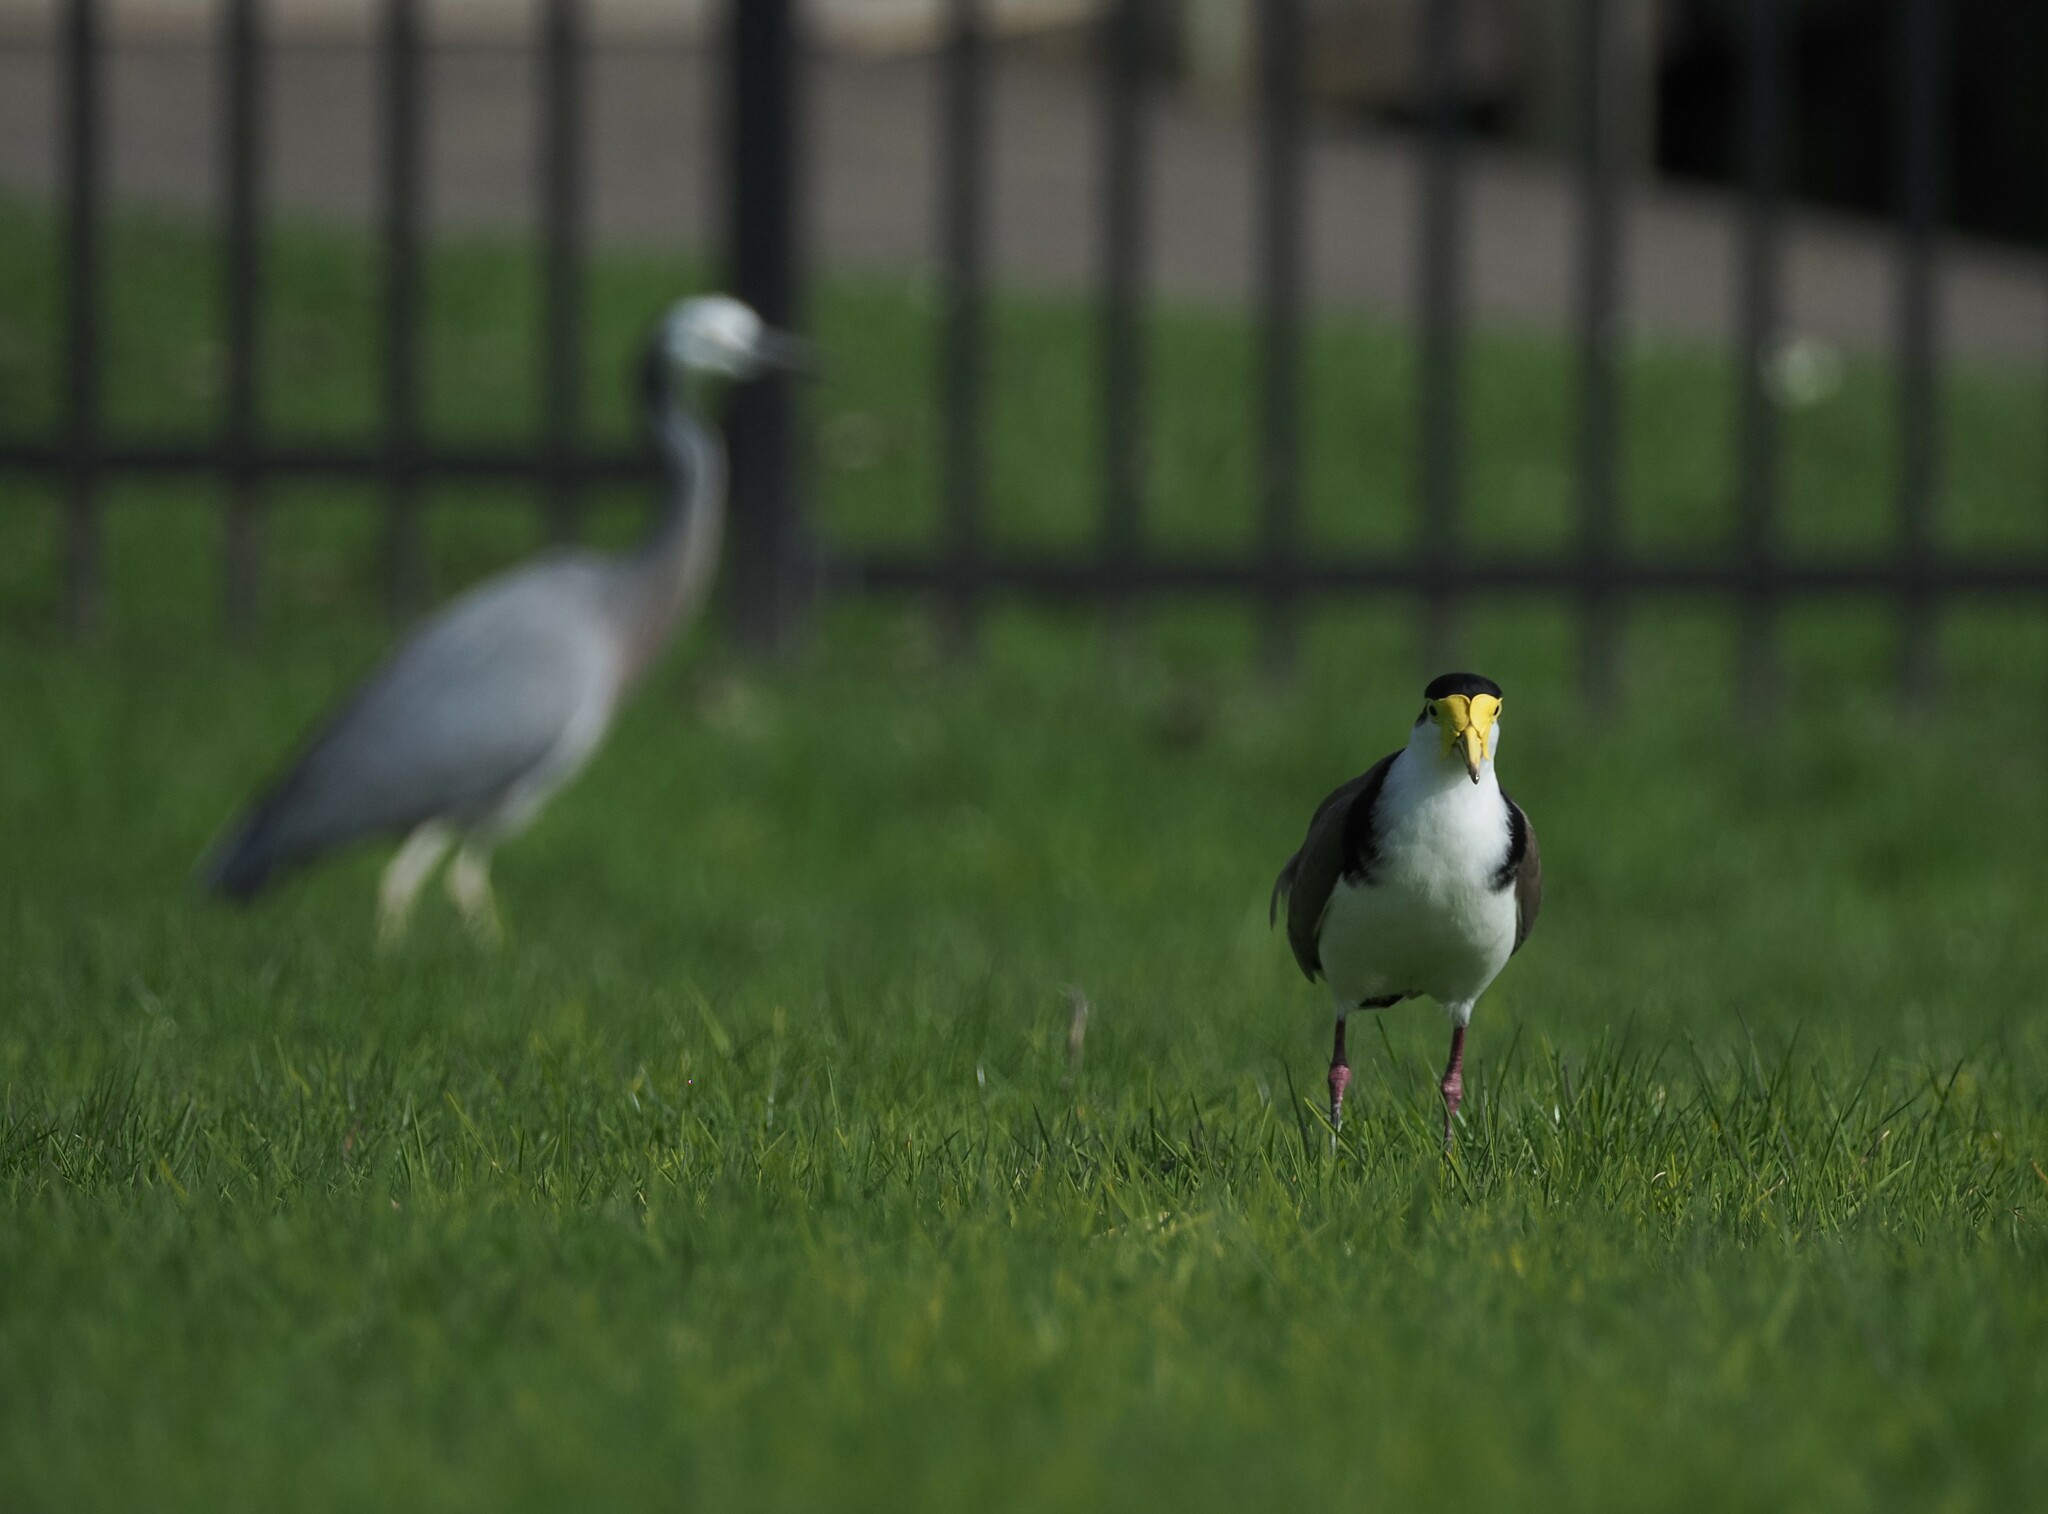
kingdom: Animalia
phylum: Chordata
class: Aves
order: Pelecaniformes
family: Ardeidae
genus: Egretta
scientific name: Egretta novaehollandiae
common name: White-faced heron
